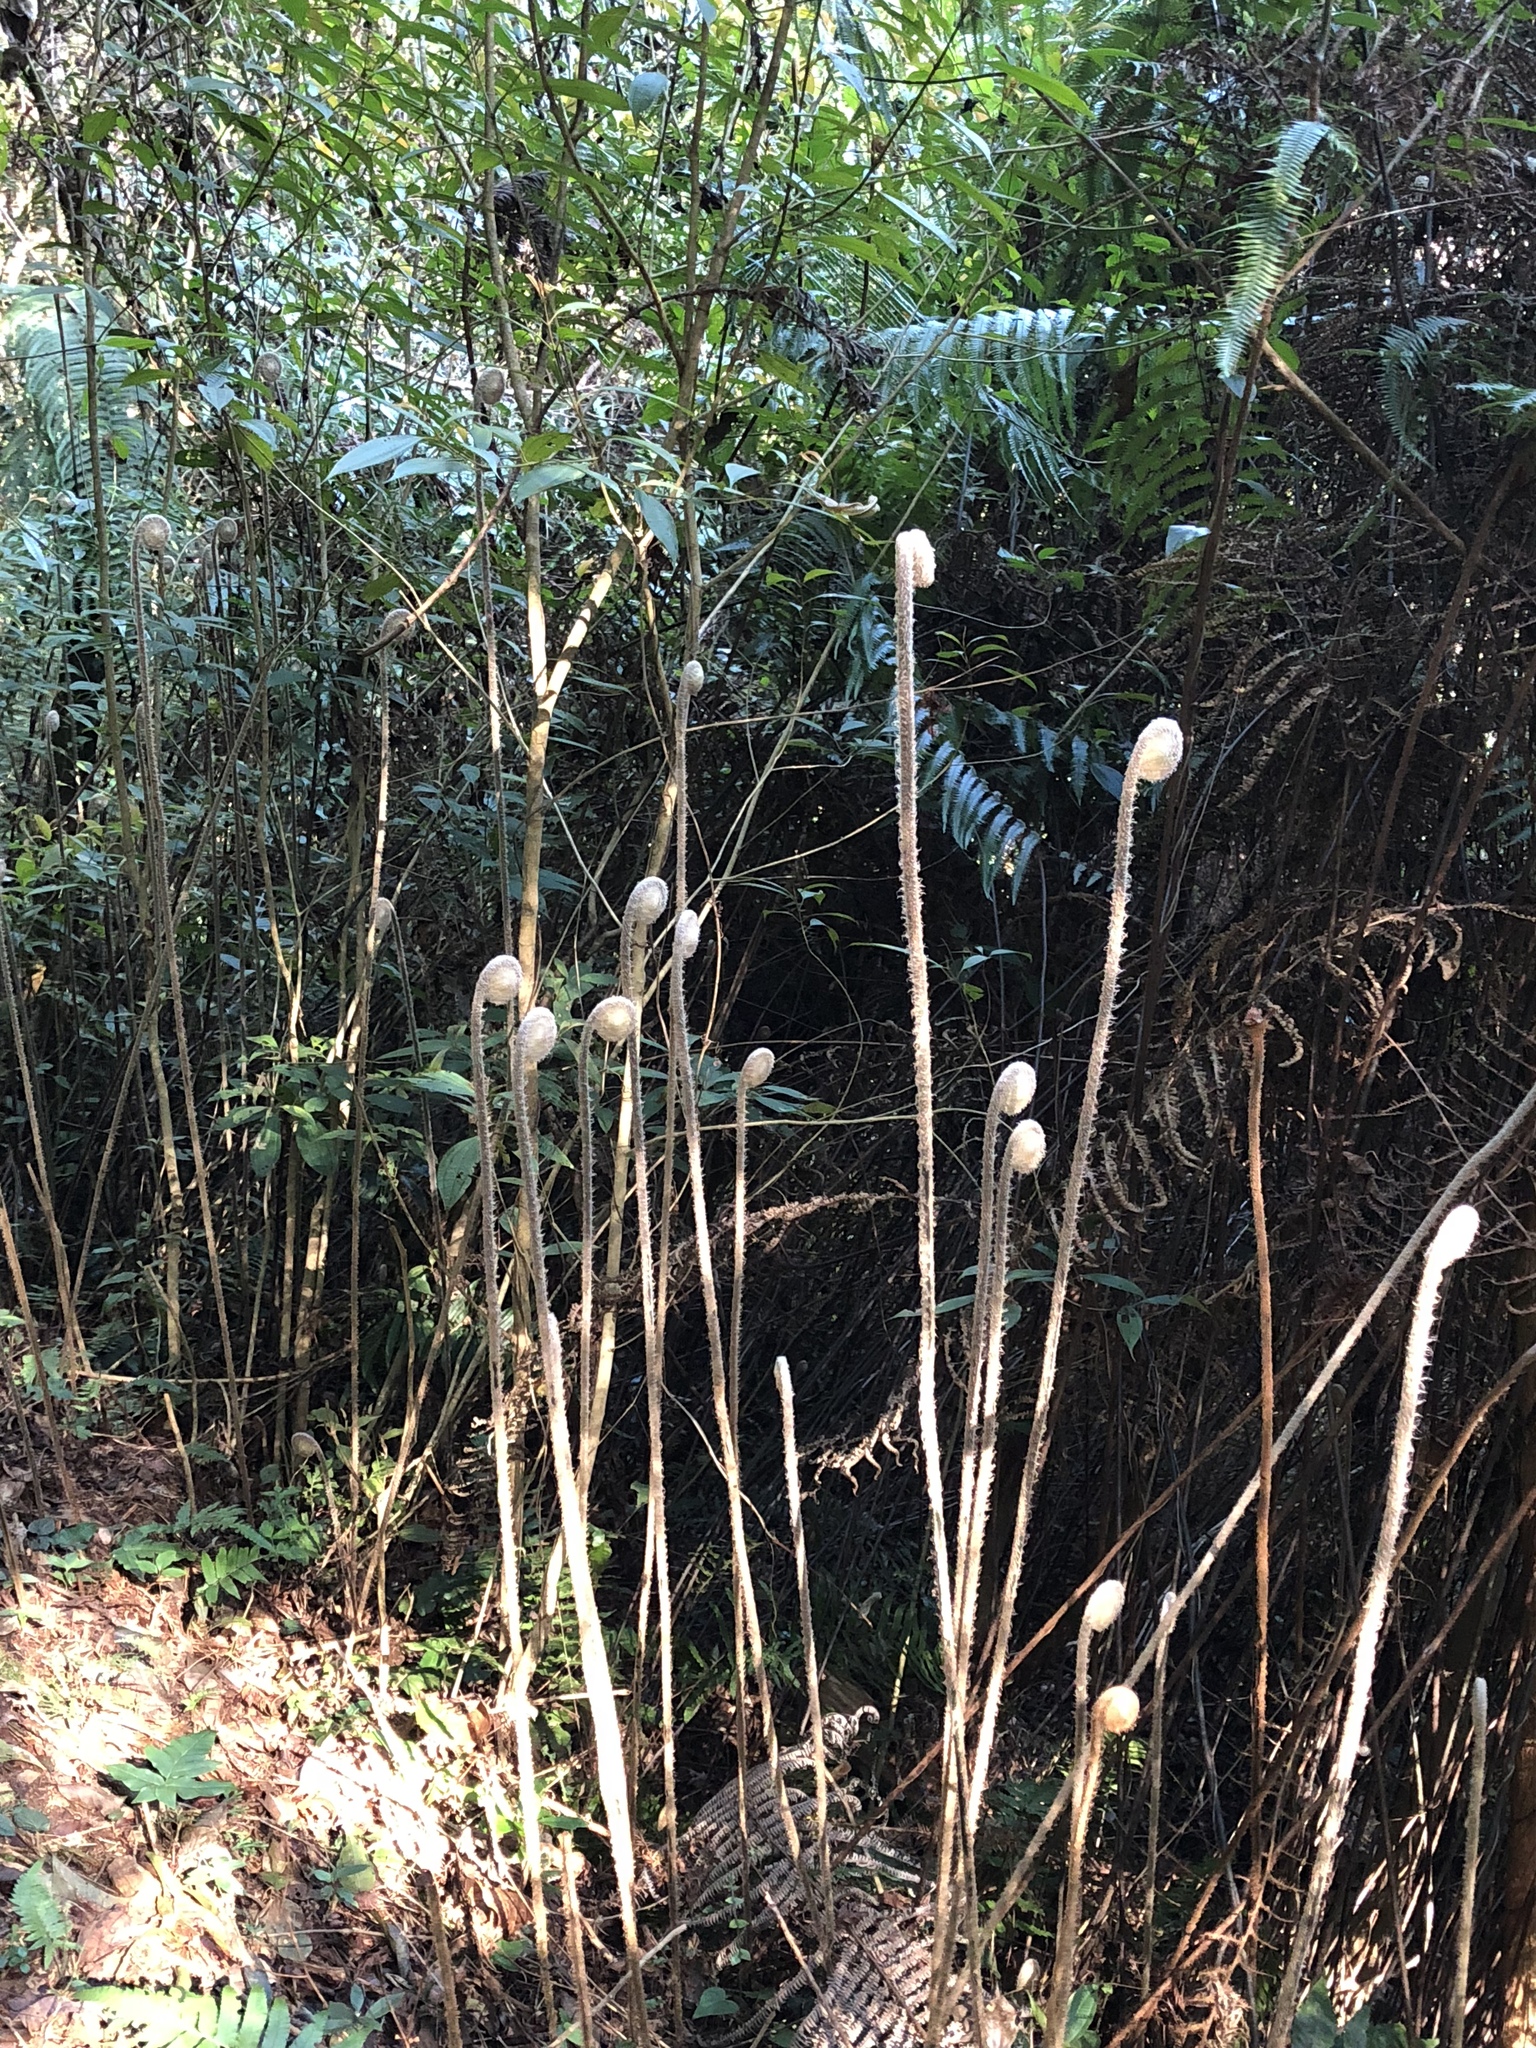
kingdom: Plantae
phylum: Tracheophyta
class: Polypodiopsida
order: Gleicheniales
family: Gleicheniaceae
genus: Diplopterygium
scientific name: Diplopterygium glaucum
